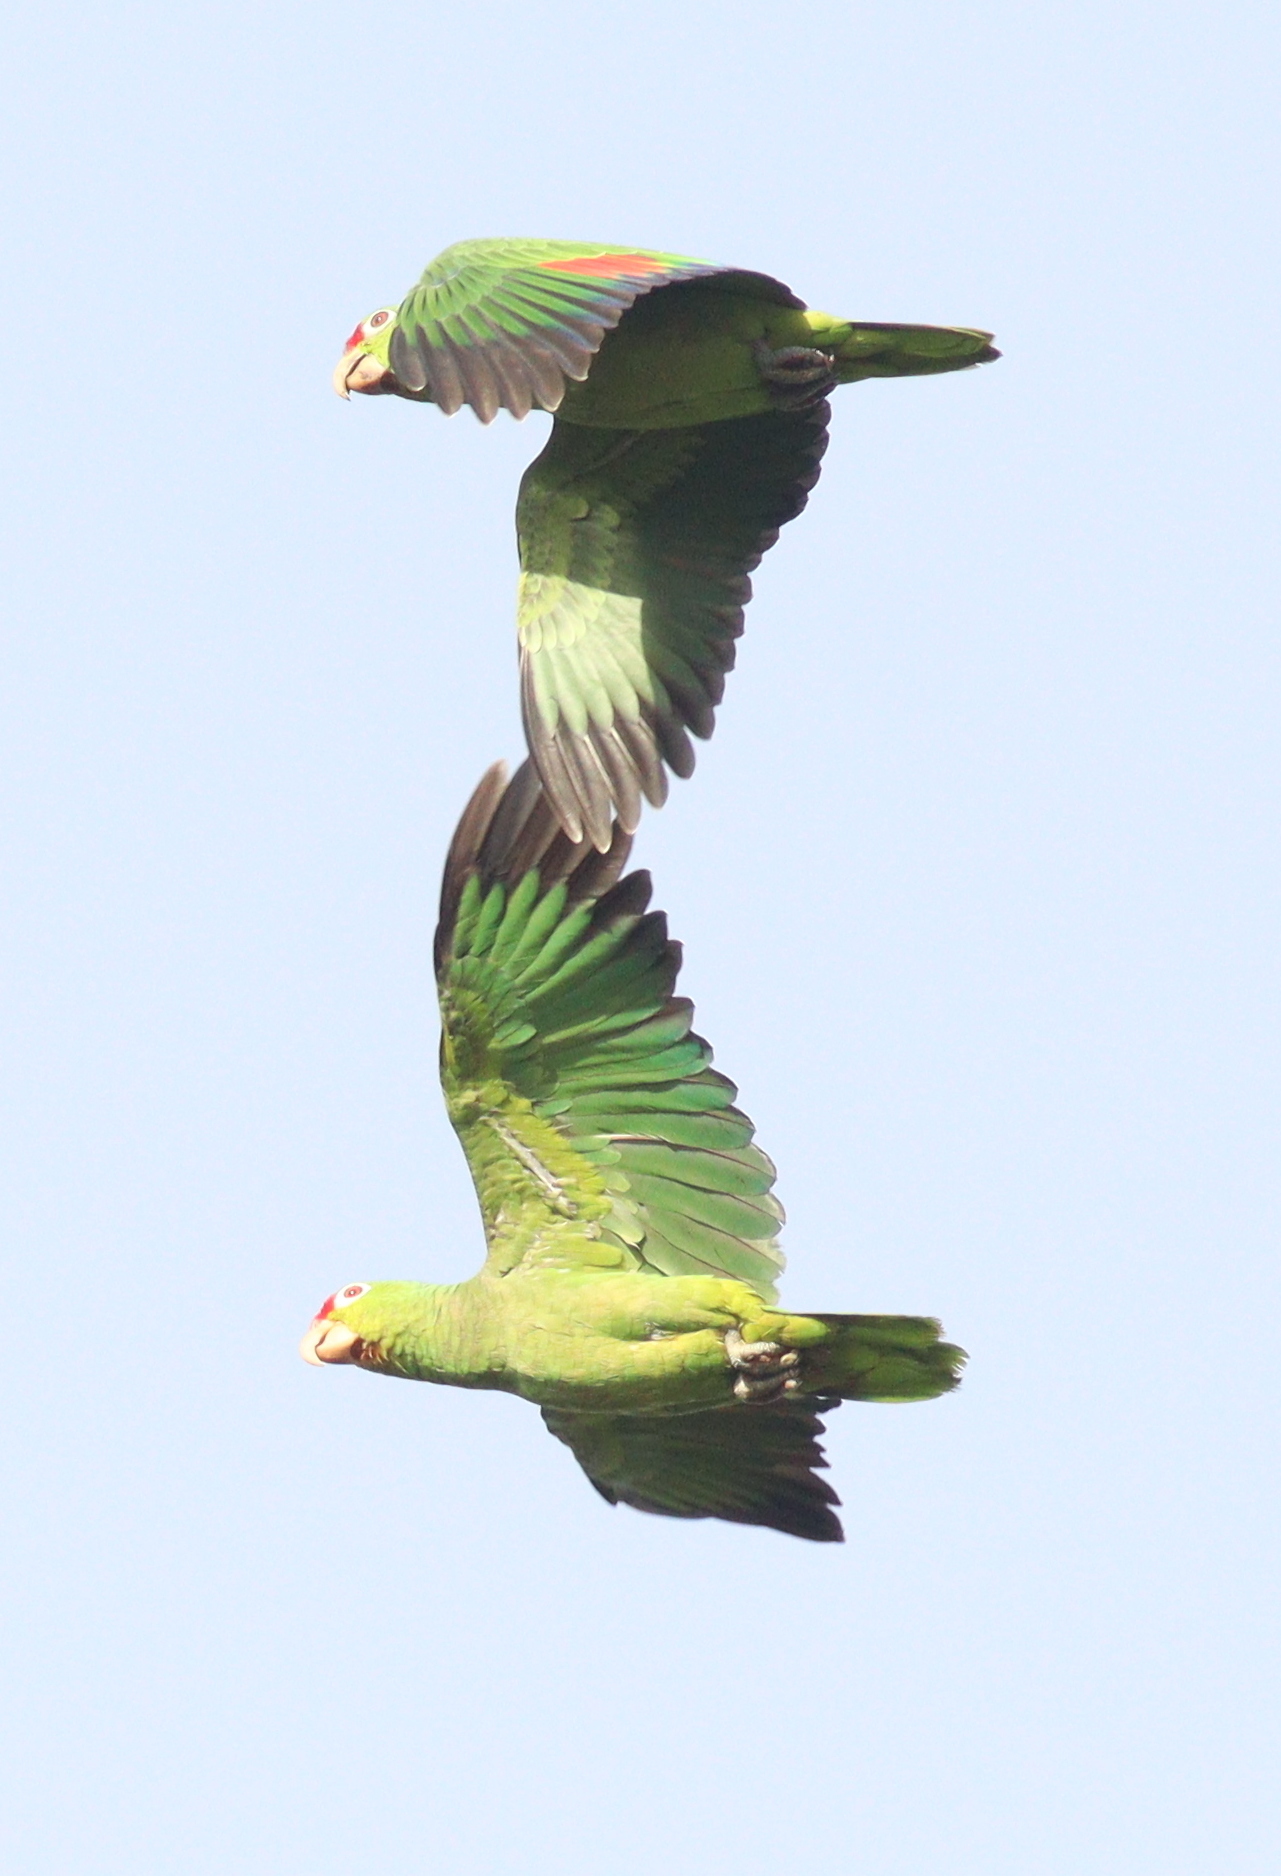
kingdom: Animalia
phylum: Chordata
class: Aves
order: Psittaciformes
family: Psittacidae
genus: Amazona
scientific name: Amazona autumnalis
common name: Red-lored amazon
